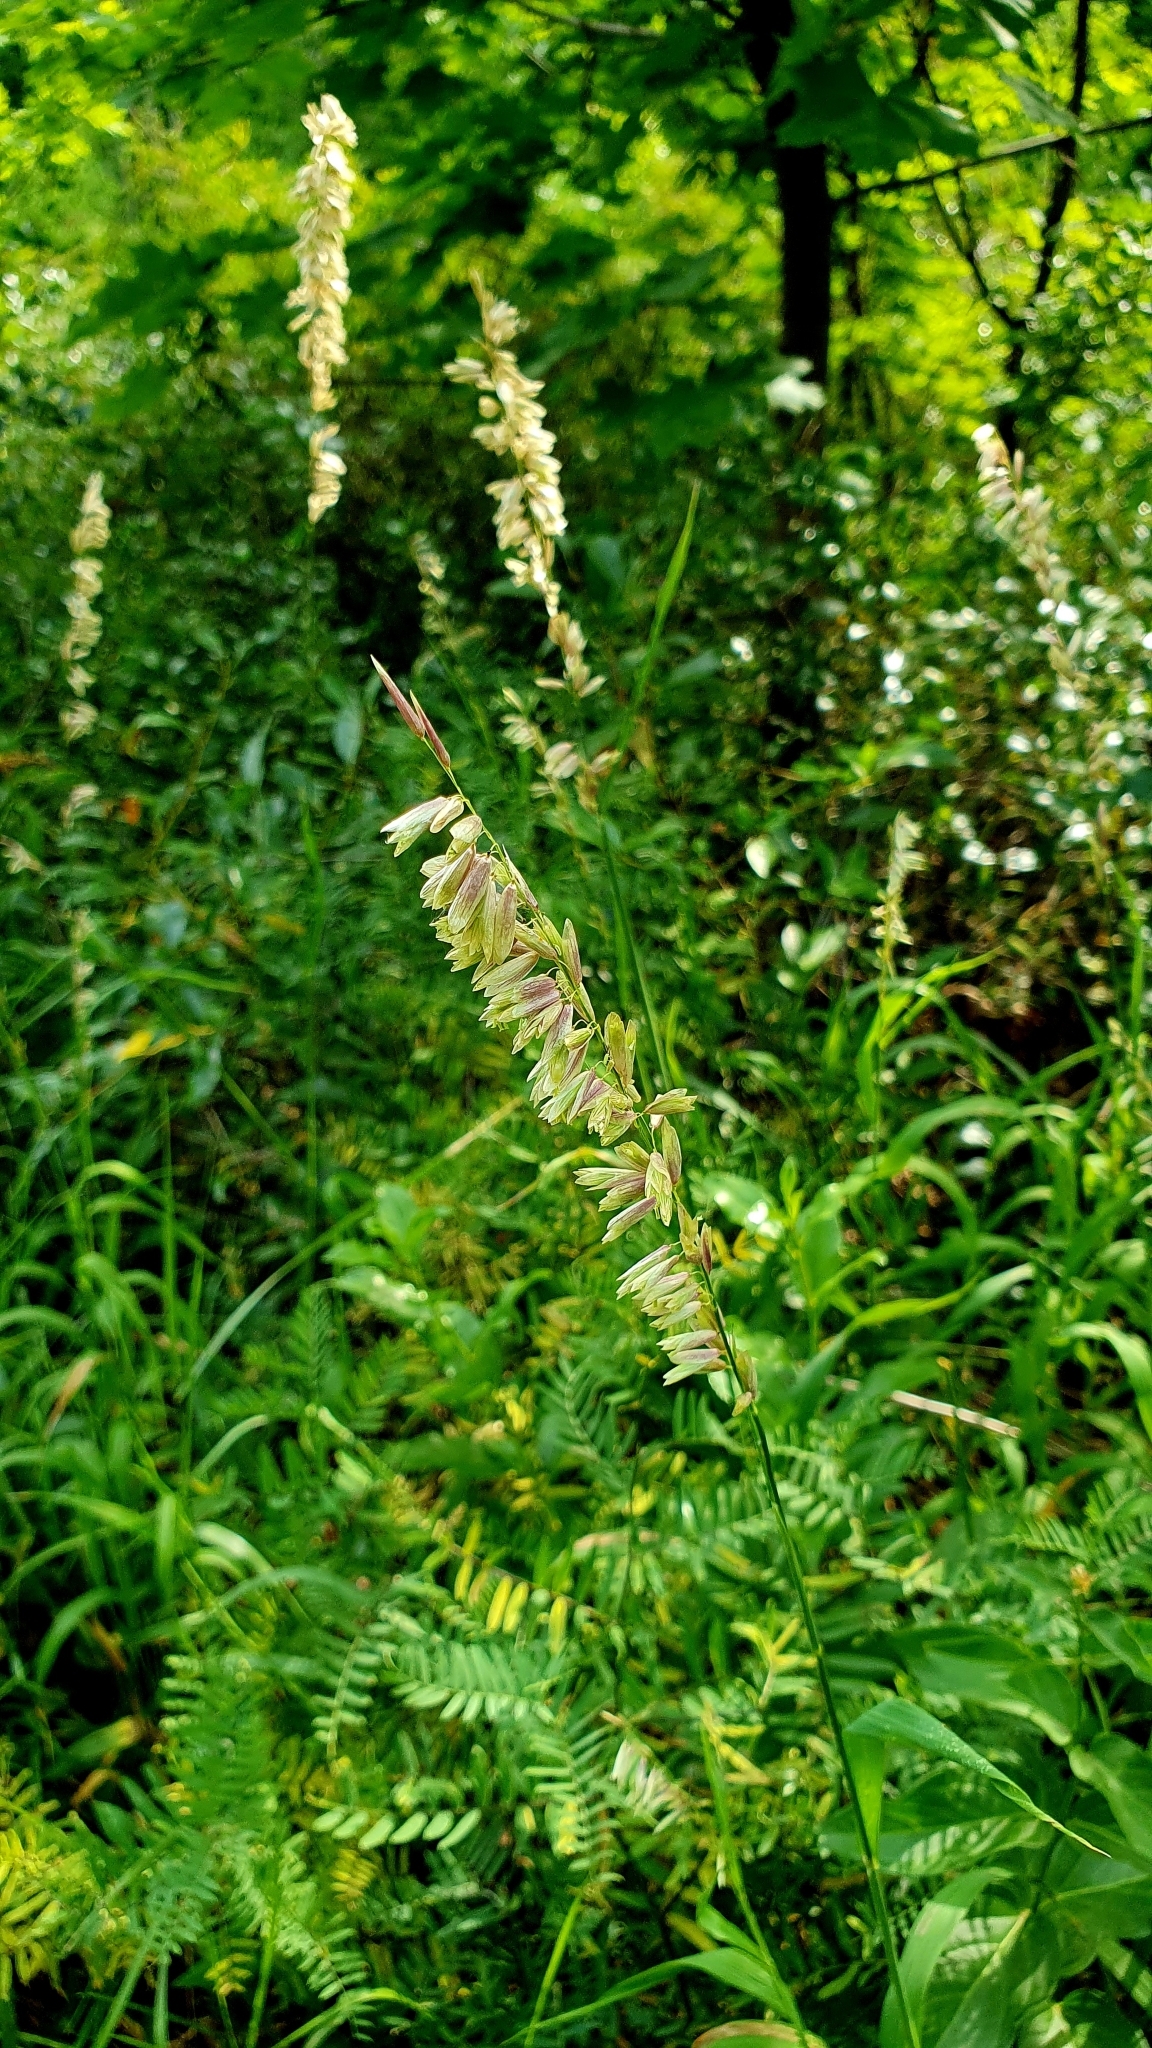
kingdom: Plantae
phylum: Tracheophyta
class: Liliopsida
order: Poales
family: Poaceae
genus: Melica
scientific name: Melica altissima
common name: Siberian melicgrass
